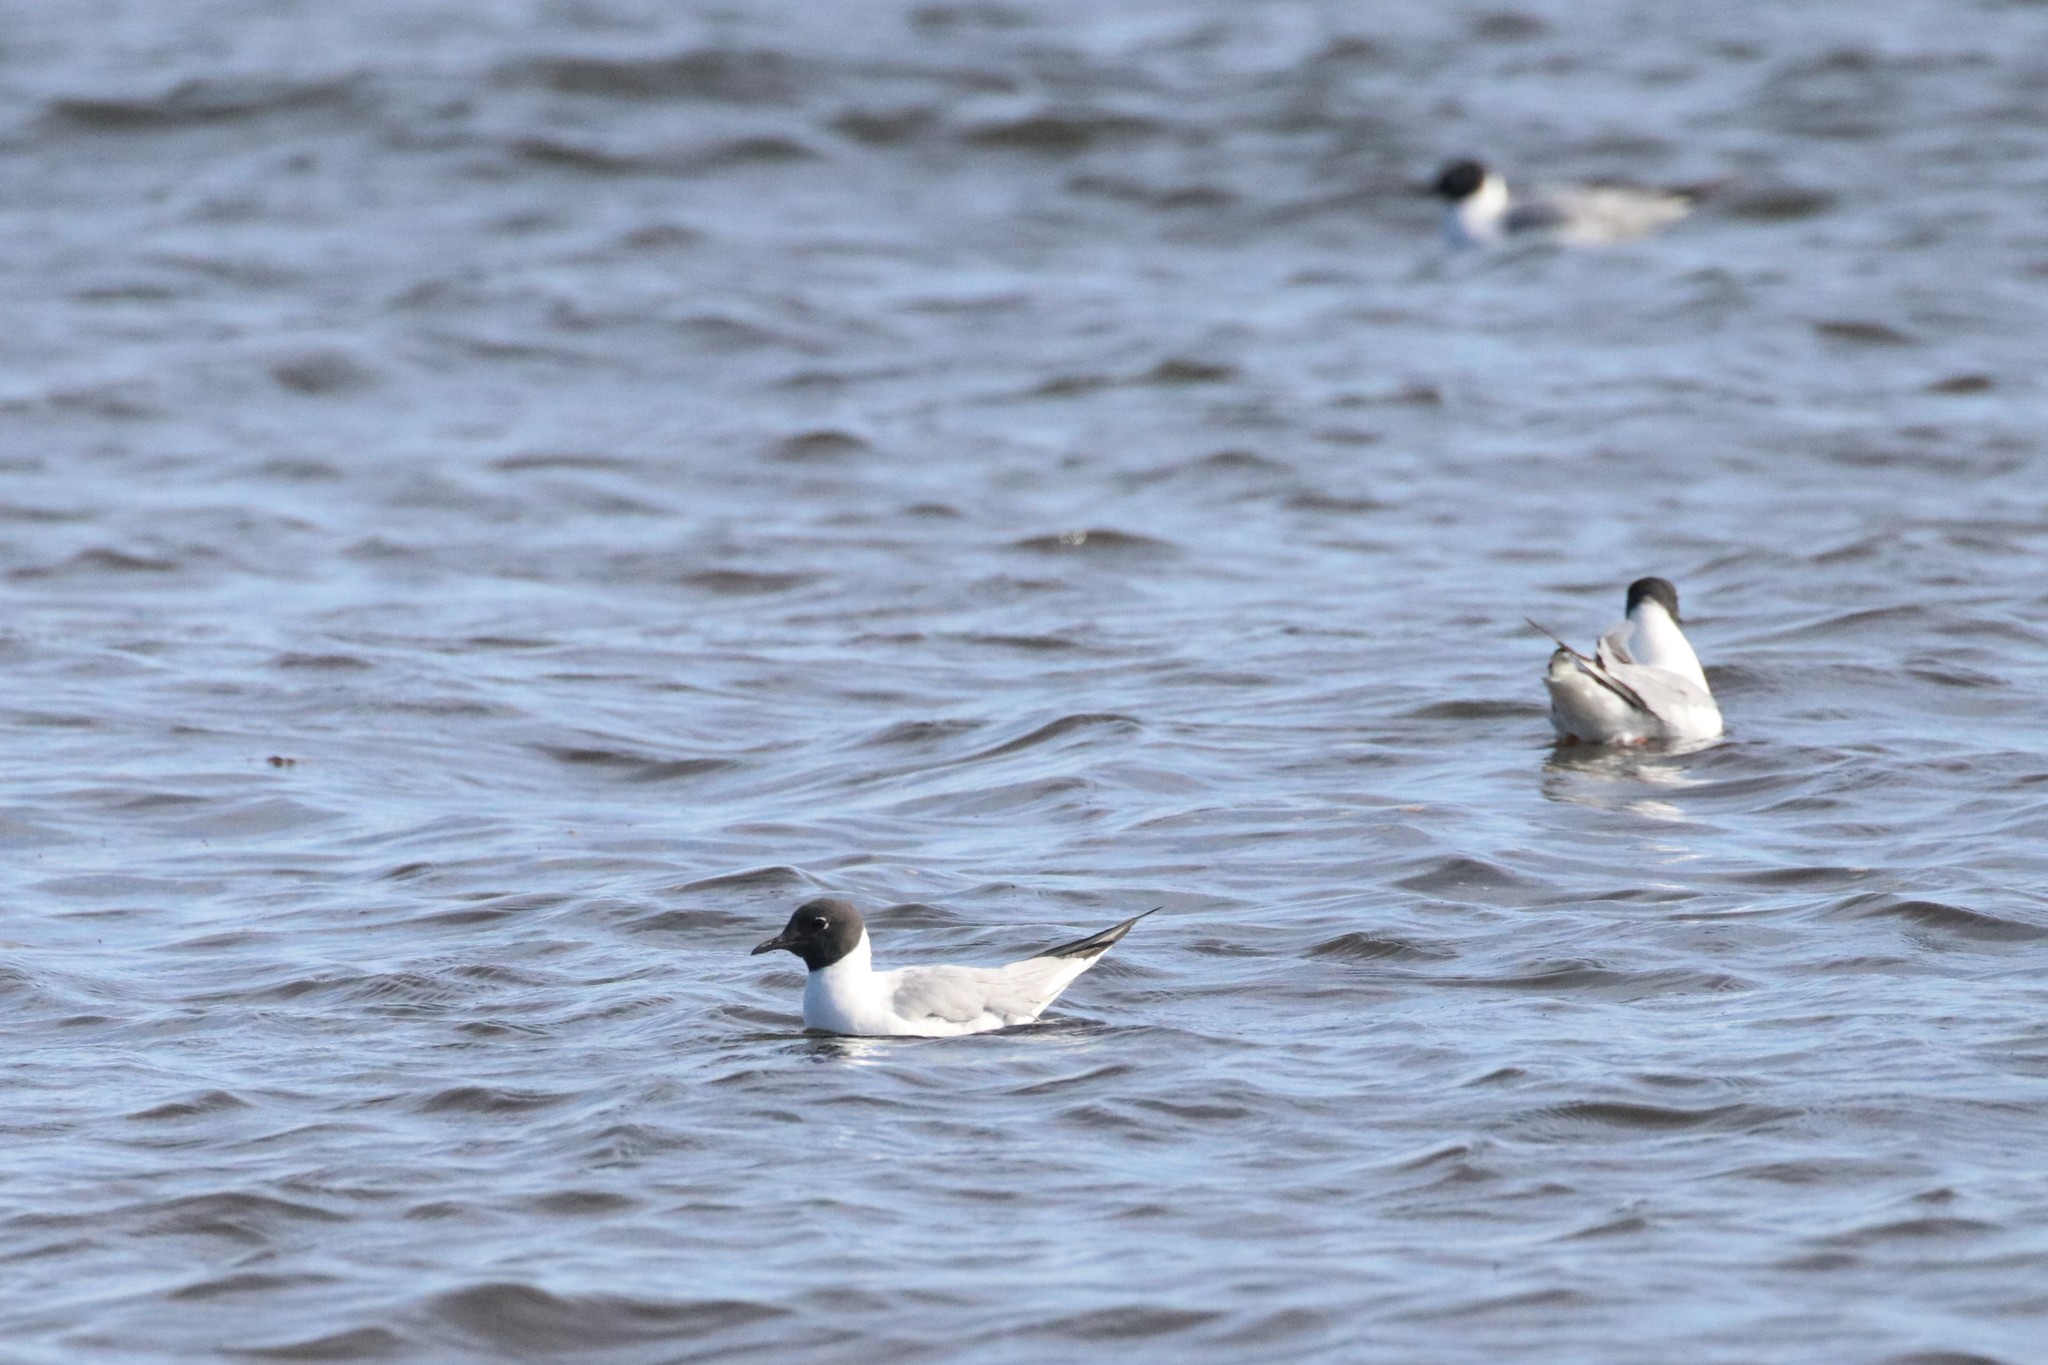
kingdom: Animalia
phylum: Chordata
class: Aves
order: Charadriiformes
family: Laridae
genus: Chroicocephalus
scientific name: Chroicocephalus philadelphia
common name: Bonaparte's gull
